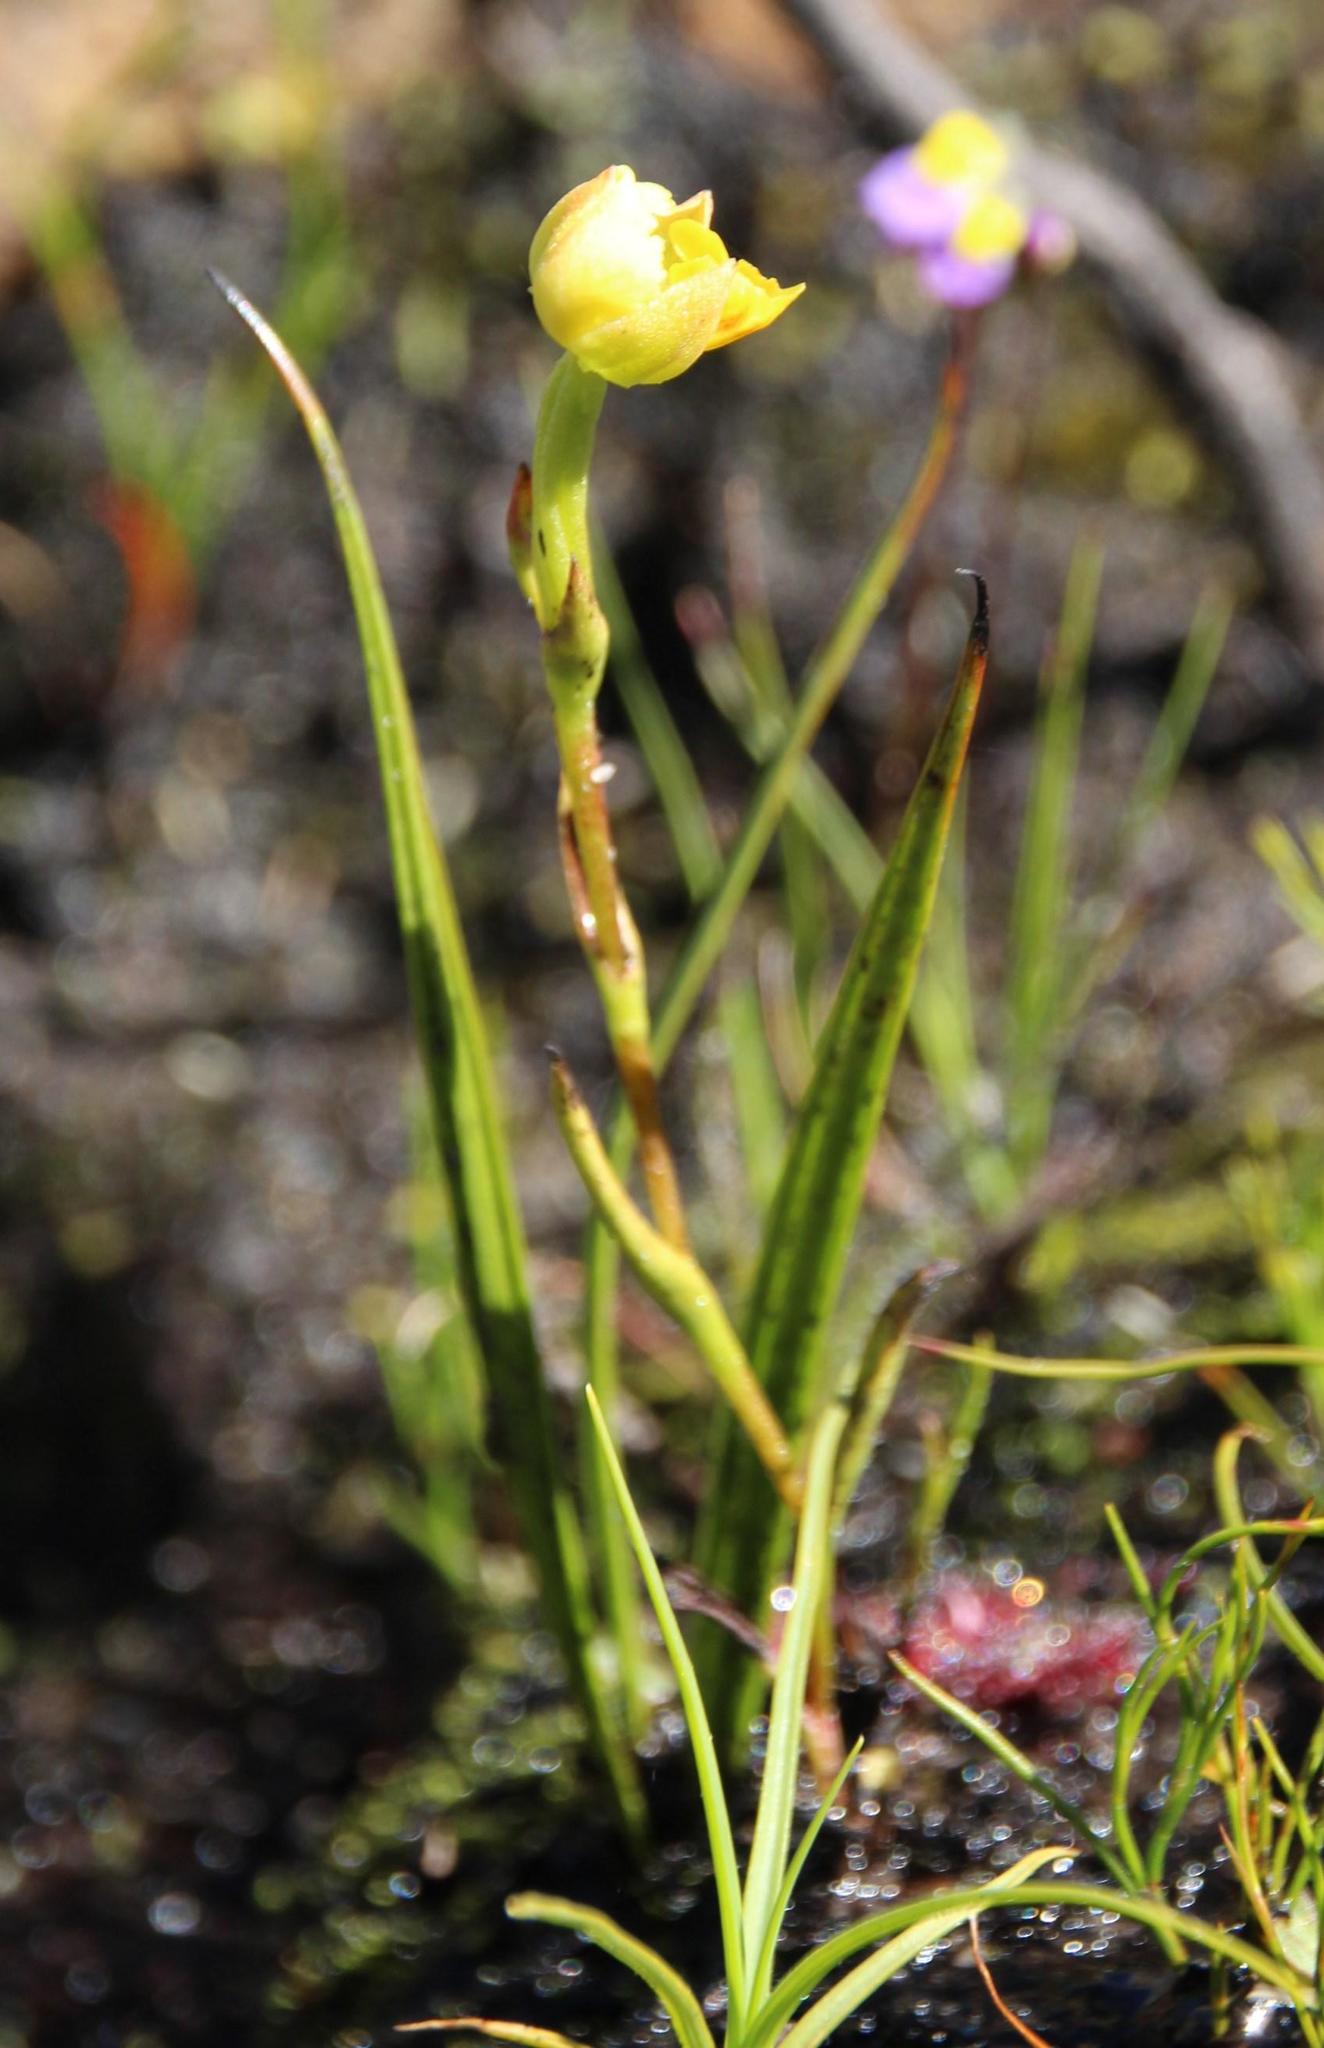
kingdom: Plantae
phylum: Tracheophyta
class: Liliopsida
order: Asparagales
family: Orchidaceae
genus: Ceratandra
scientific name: Ceratandra bicolor
